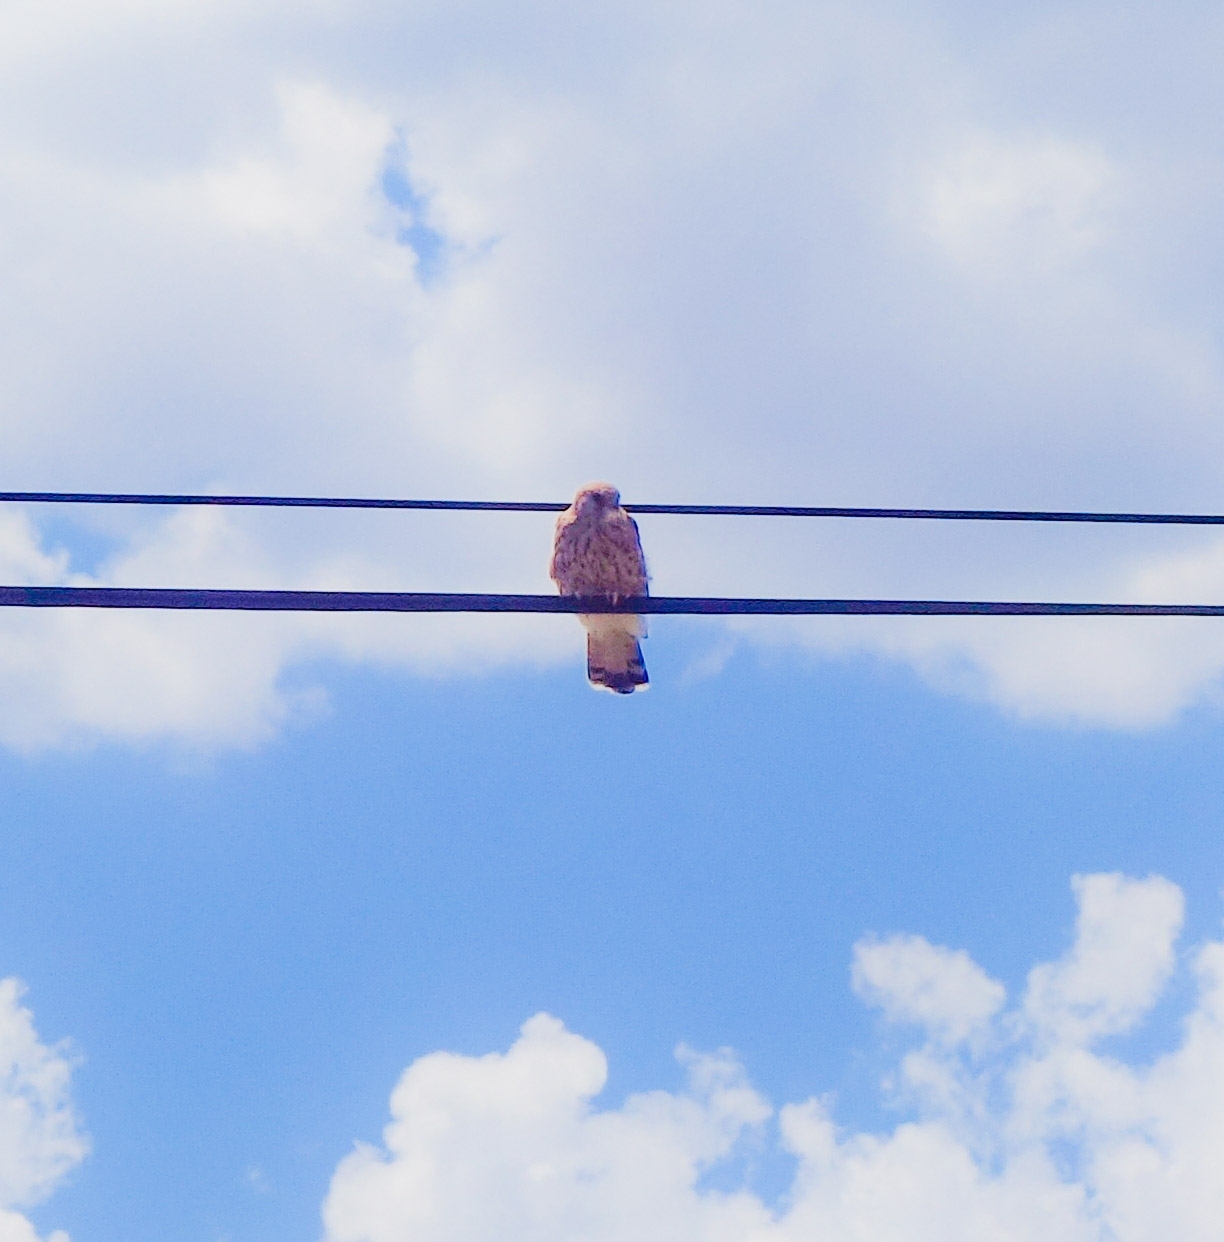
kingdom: Animalia
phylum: Chordata
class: Aves
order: Falconiformes
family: Falconidae
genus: Falco
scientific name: Falco rupicolus
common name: Rock kestrel
